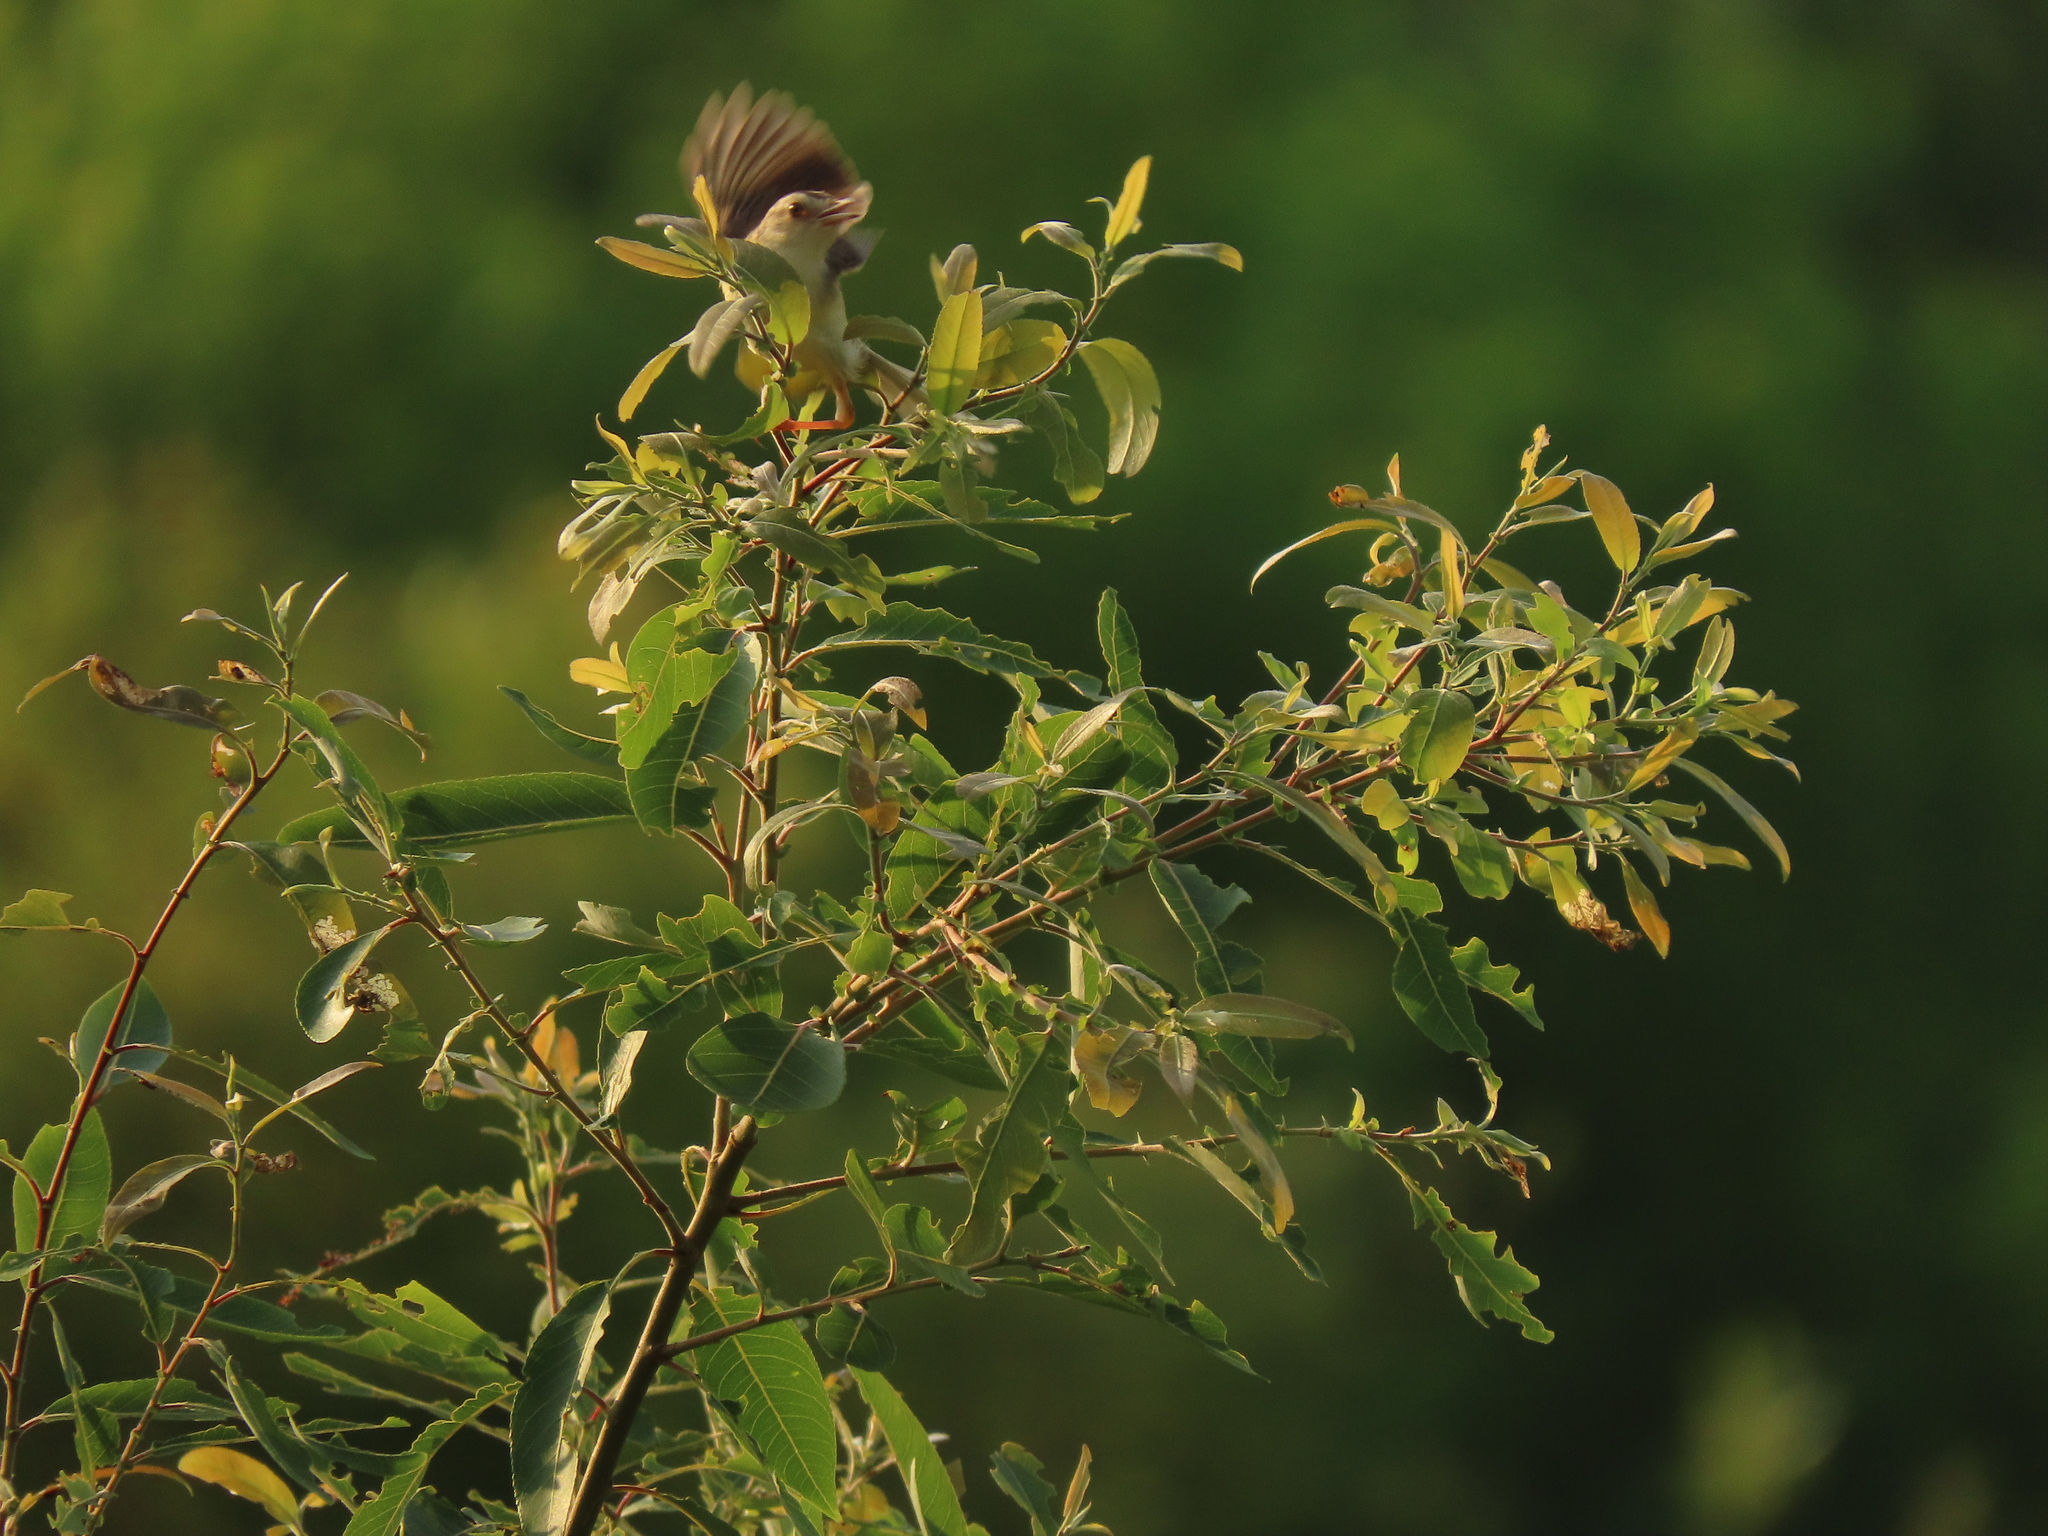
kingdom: Plantae
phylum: Tracheophyta
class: Magnoliopsida
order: Malpighiales
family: Salicaceae
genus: Salix
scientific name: Salix mesnyi
